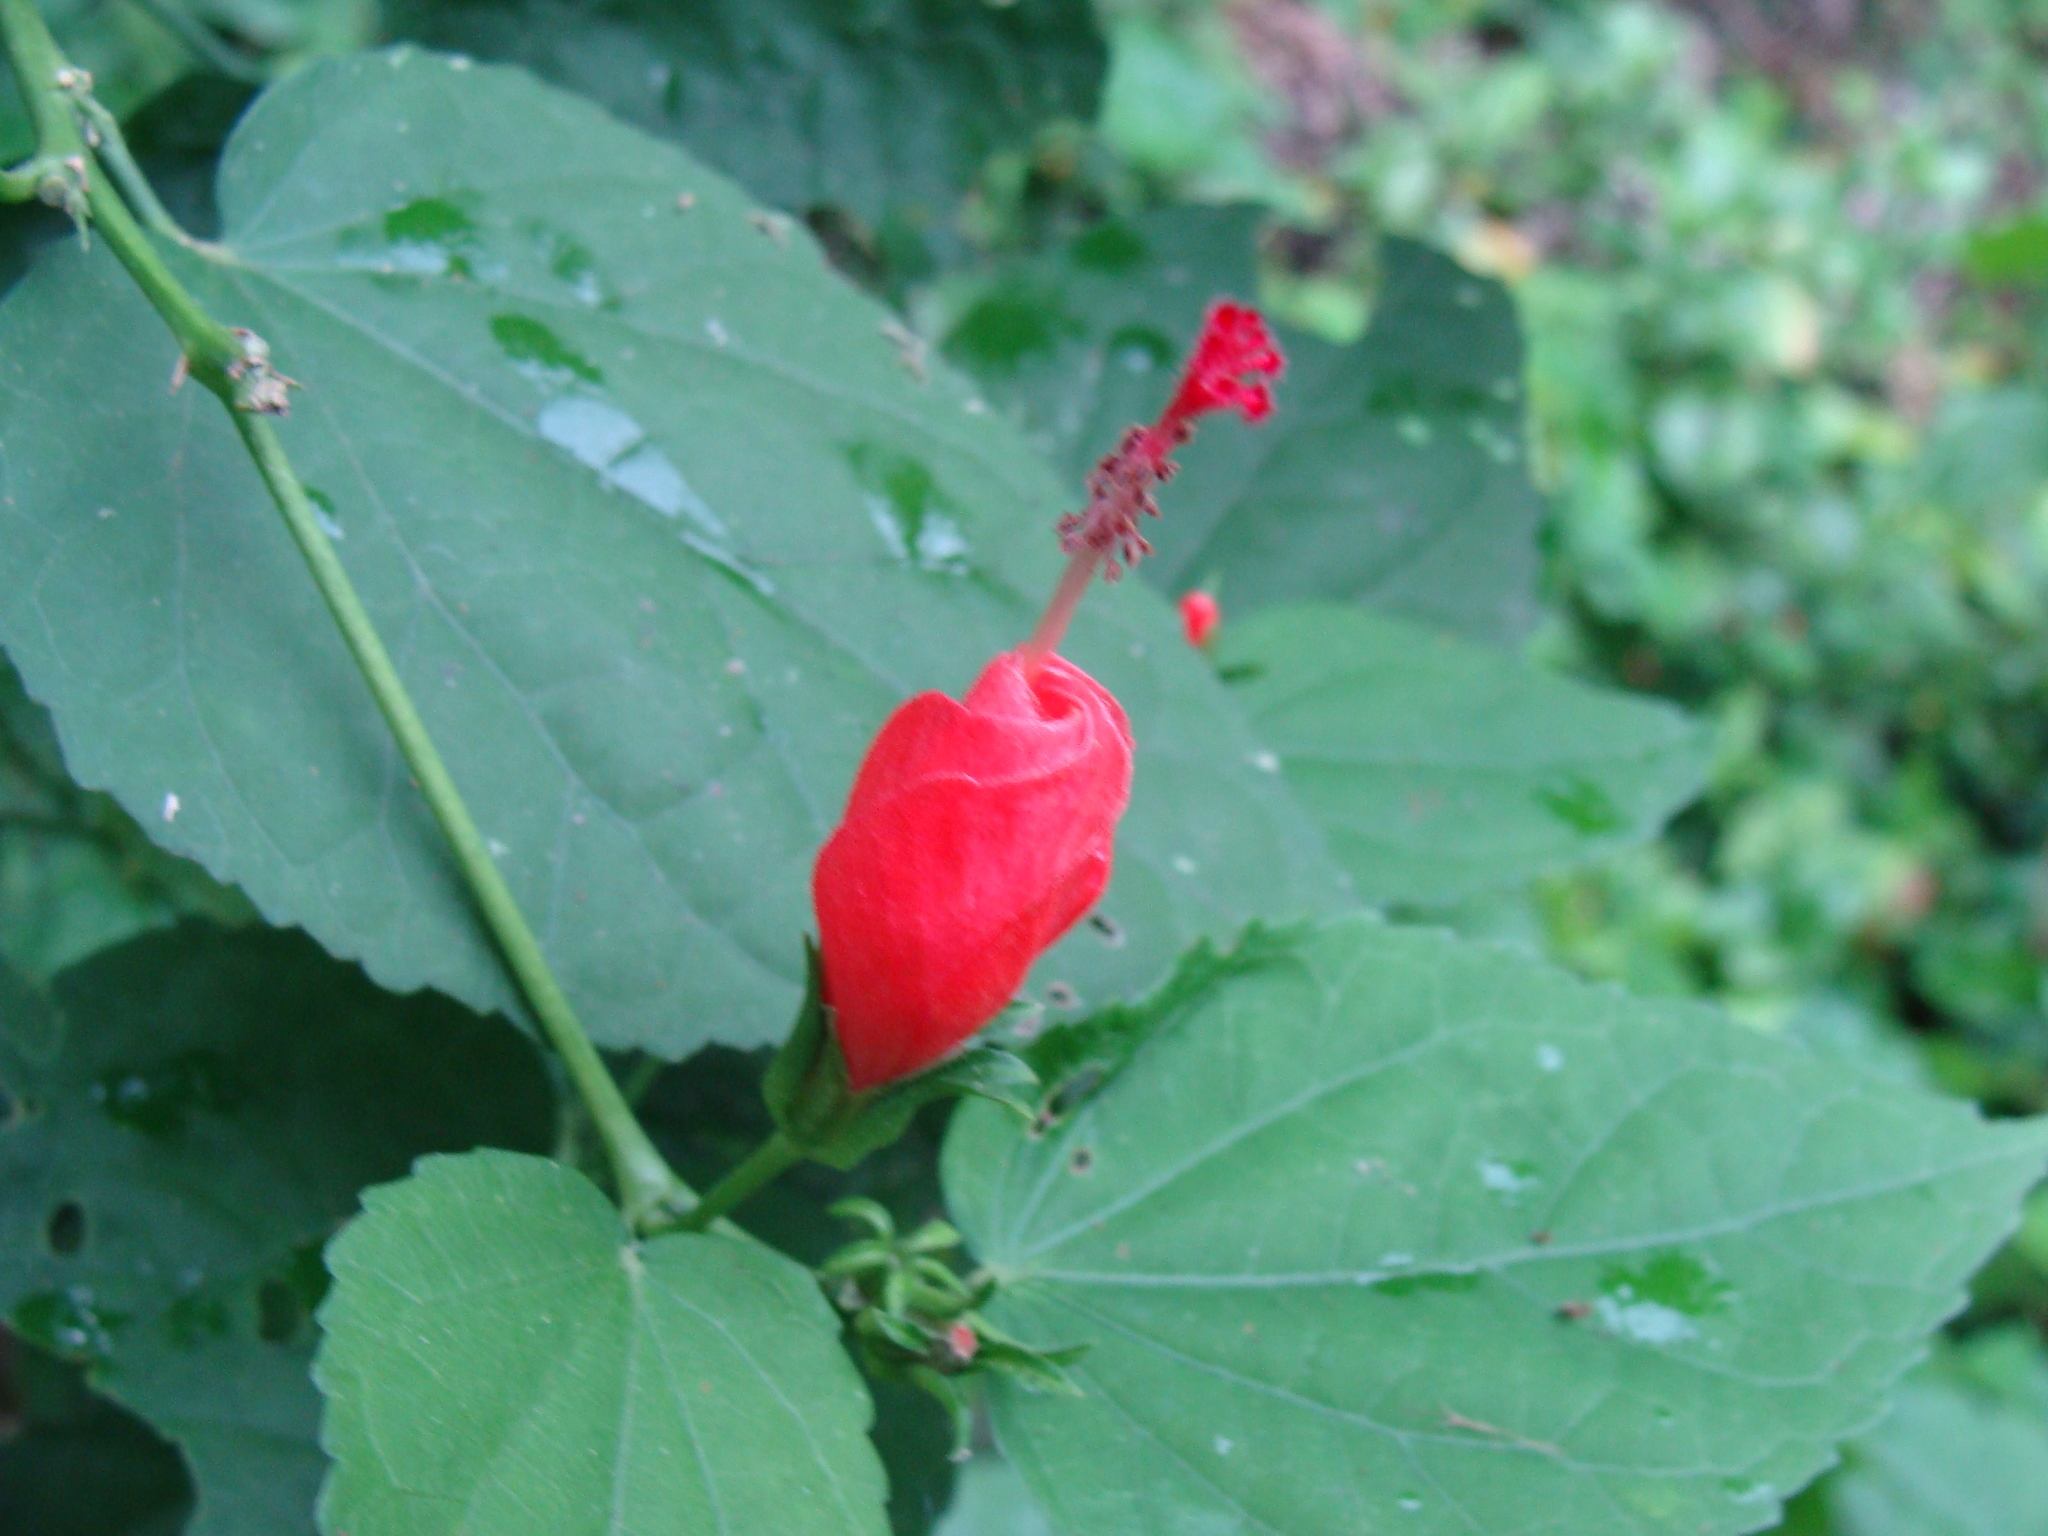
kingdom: Plantae
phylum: Tracheophyta
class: Magnoliopsida
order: Malvales
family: Malvaceae
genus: Malvaviscus
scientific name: Malvaviscus arboreus
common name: Wax mallow
